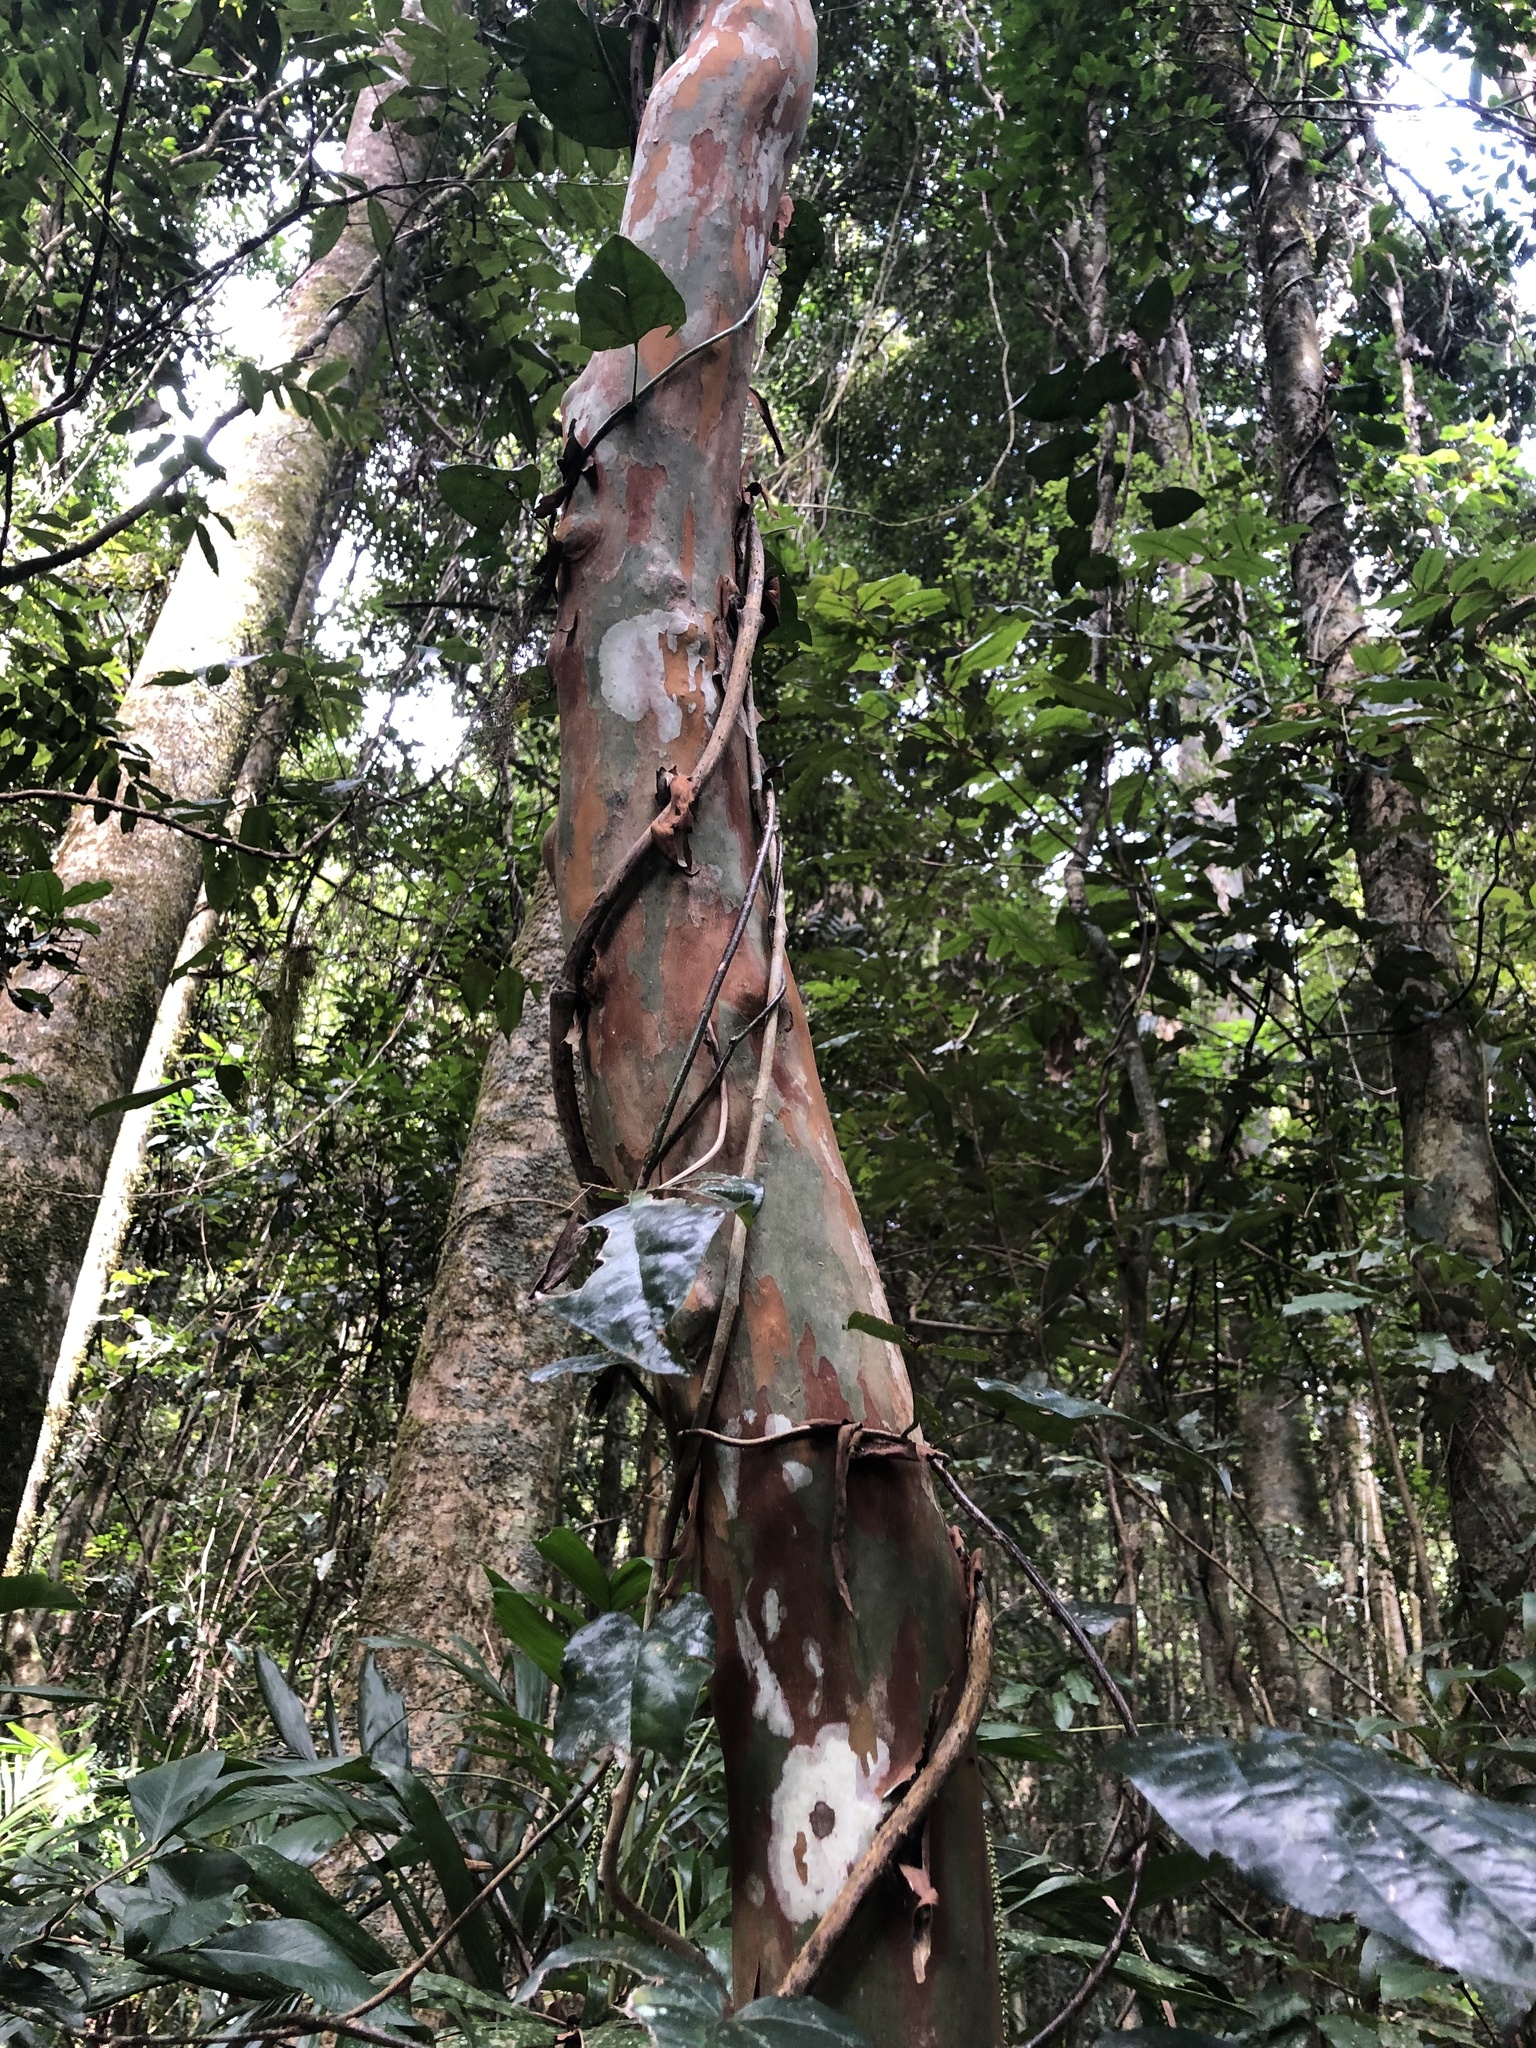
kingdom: Plantae
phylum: Tracheophyta
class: Magnoliopsida
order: Myrtales
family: Myrtaceae
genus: Gossia
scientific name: Gossia bidwillii
